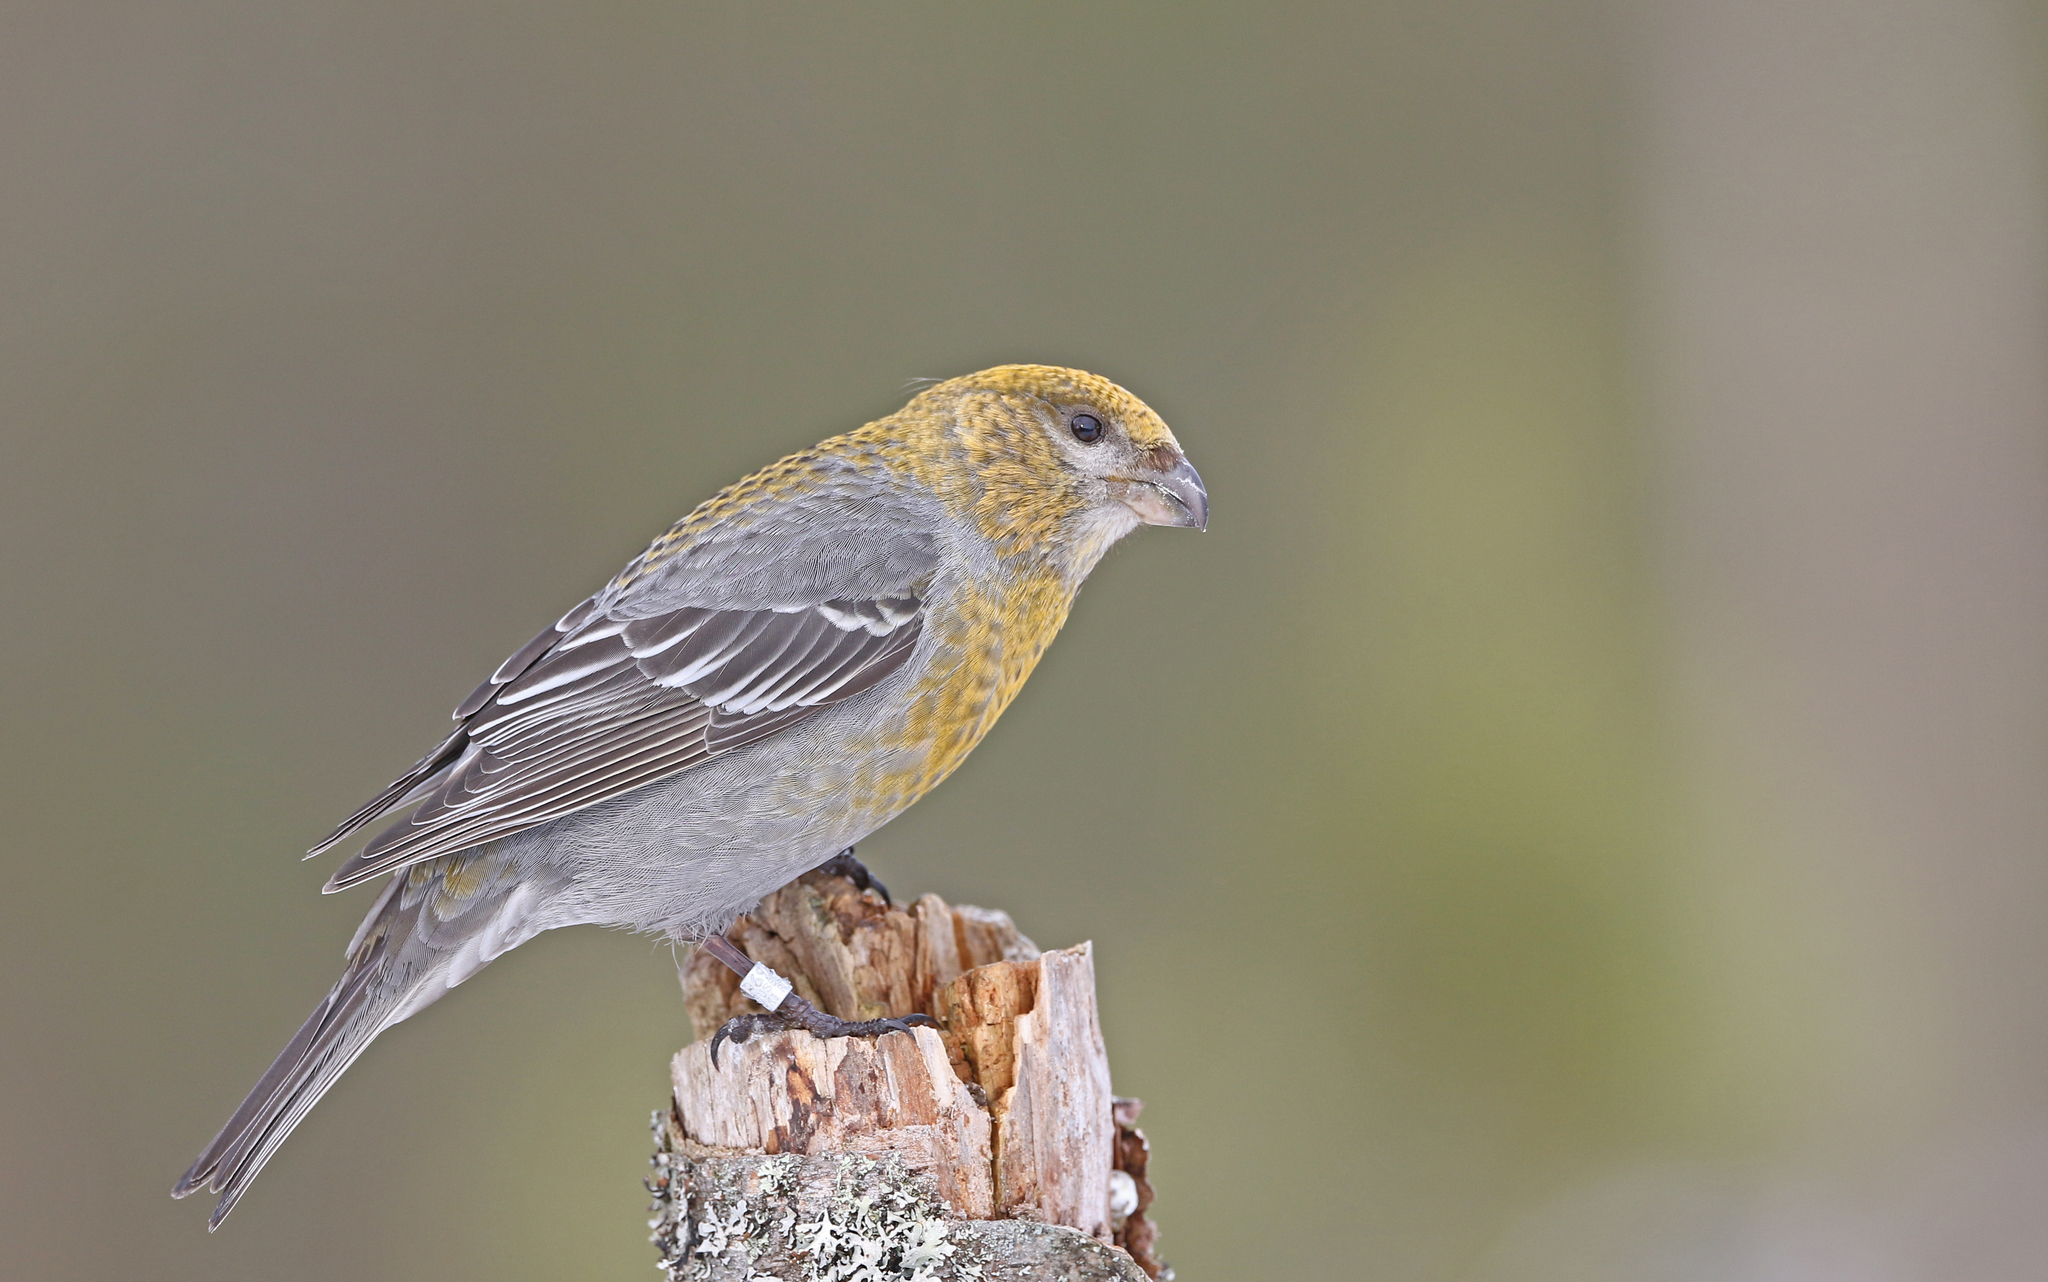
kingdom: Animalia
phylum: Chordata
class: Aves
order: Passeriformes
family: Fringillidae
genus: Pinicola
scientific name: Pinicola enucleator
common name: Pine grosbeak
